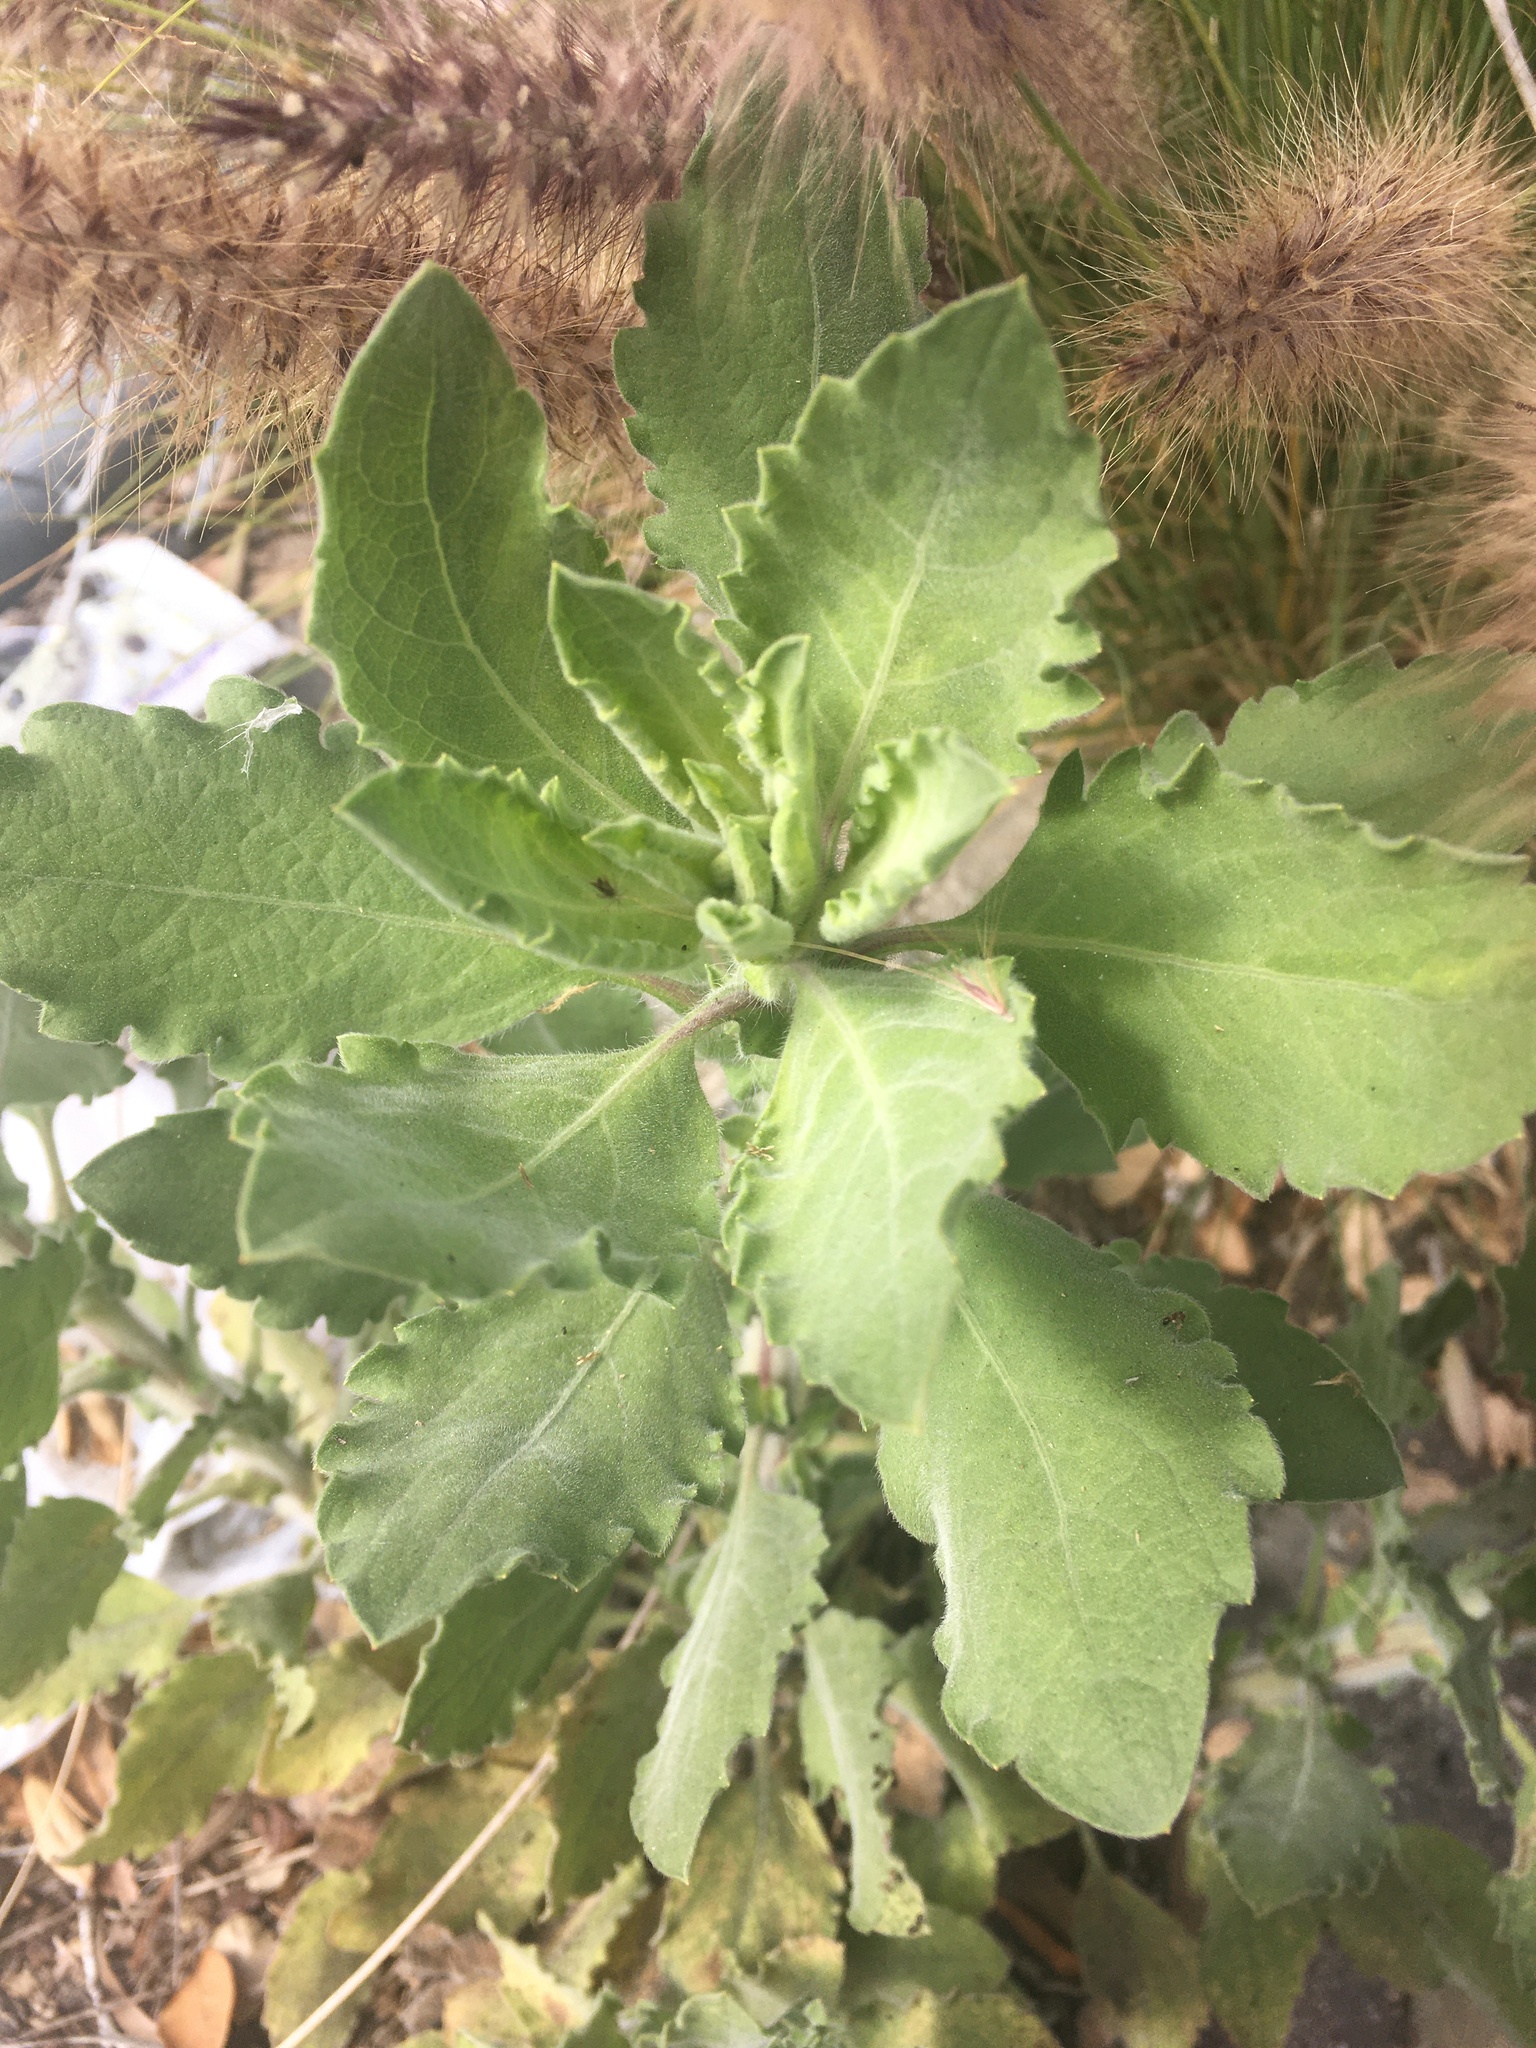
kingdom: Plantae
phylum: Tracheophyta
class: Magnoliopsida
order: Asterales
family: Asteraceae
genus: Heterotheca
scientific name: Heterotheca grandiflora
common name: Telegraphweed
